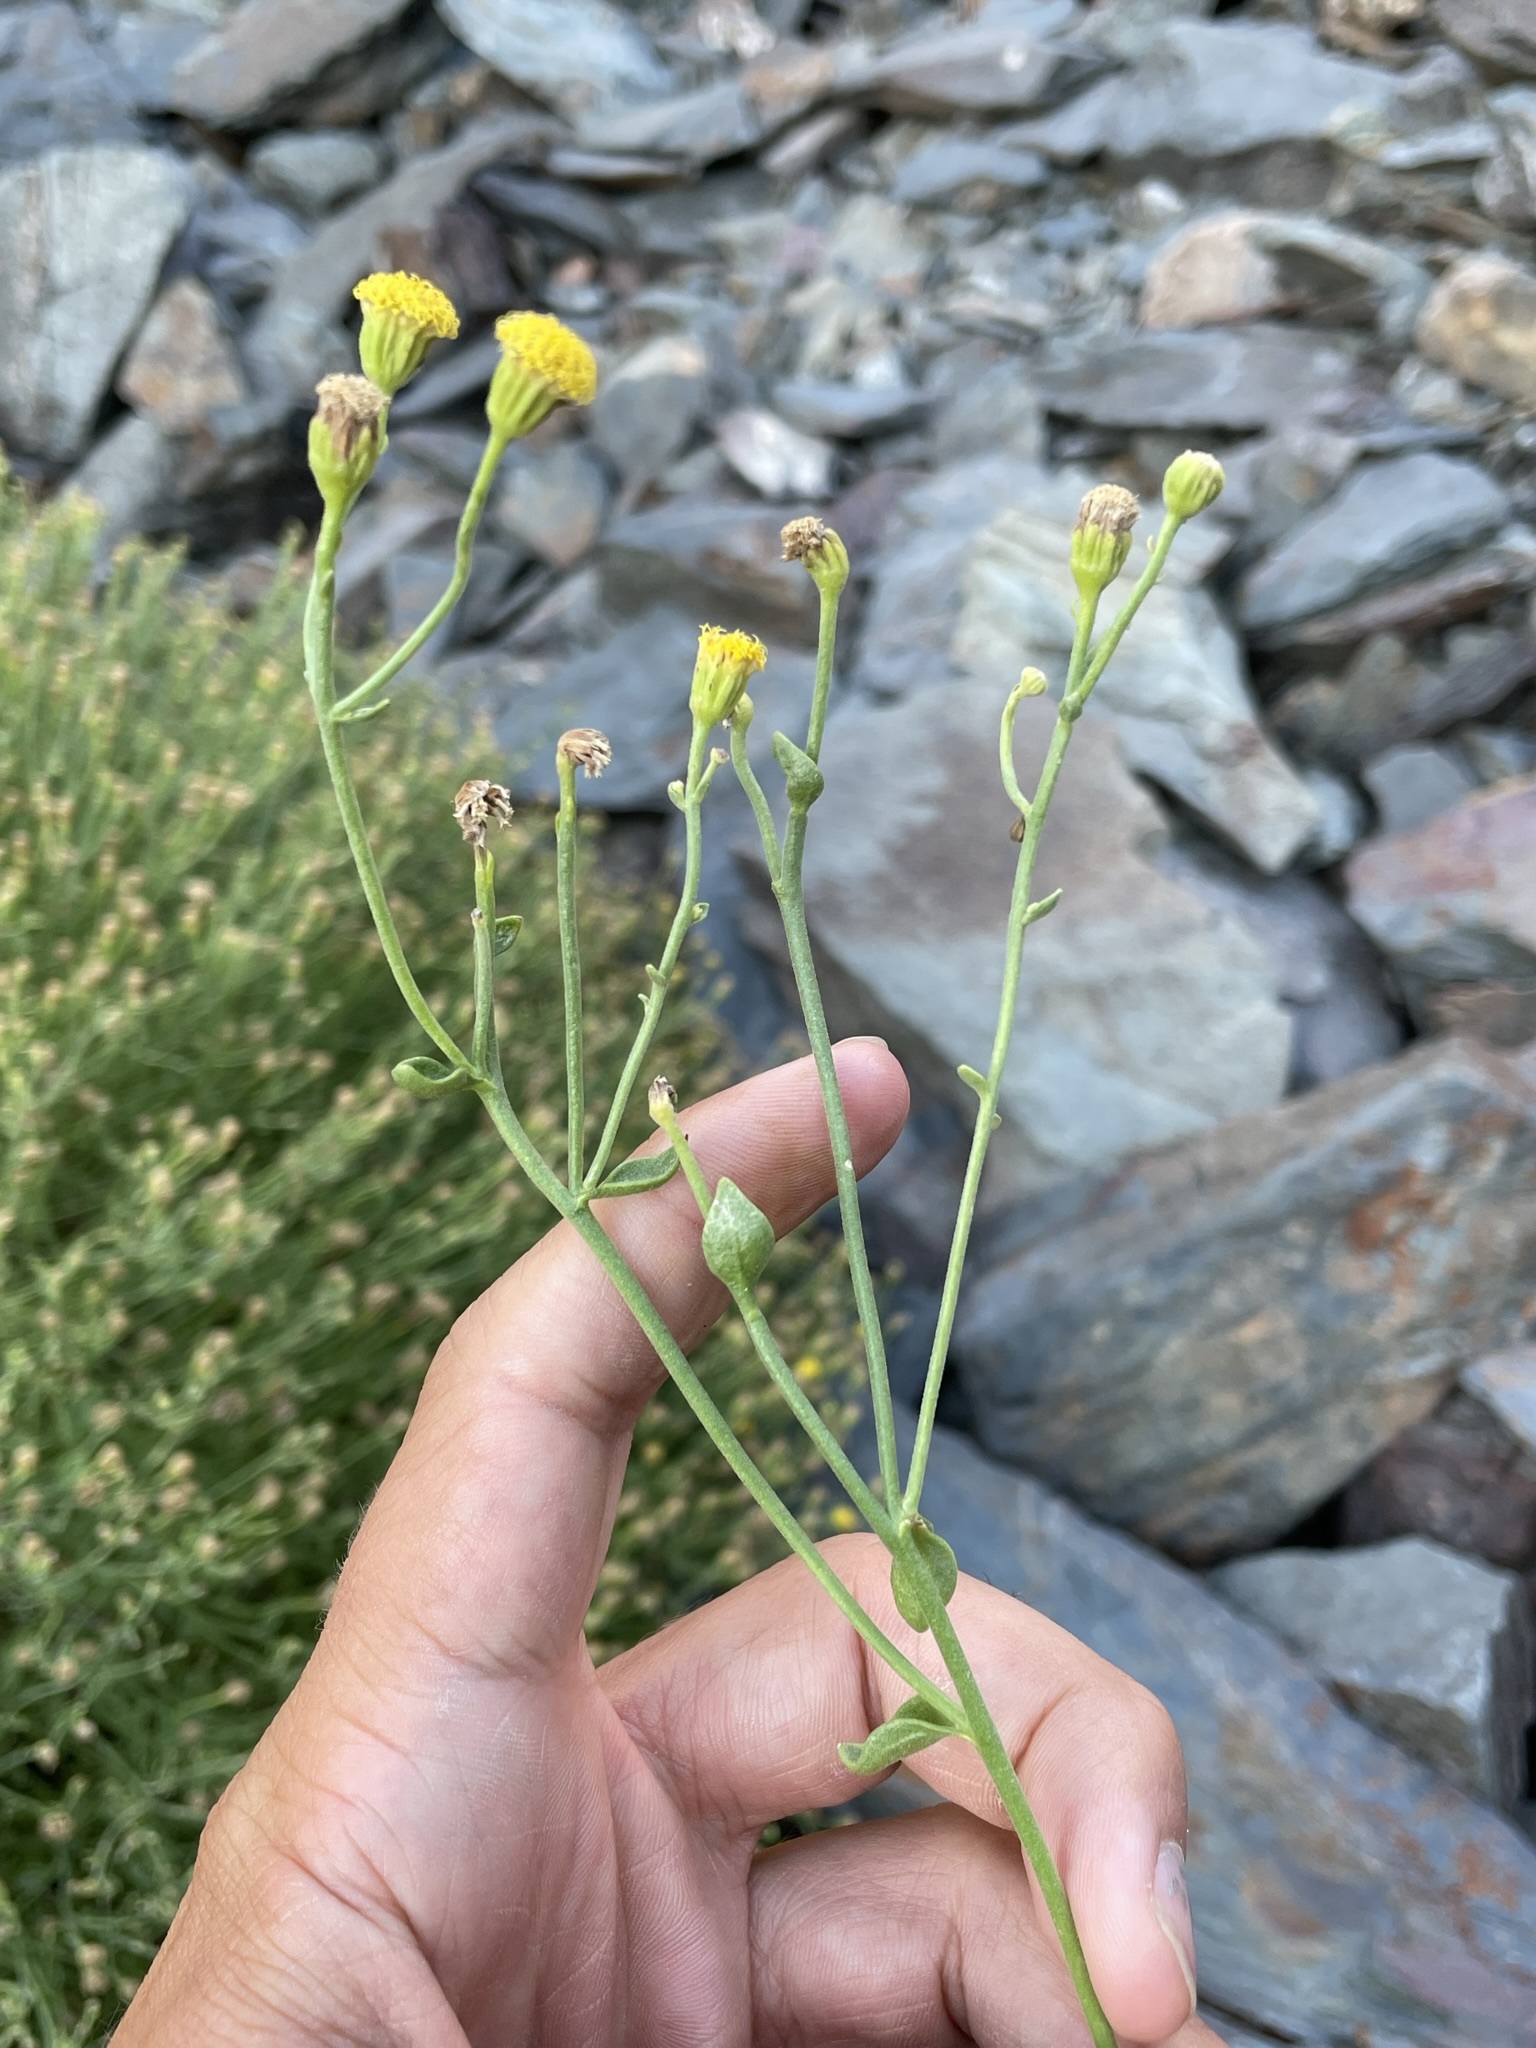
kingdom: Plantae
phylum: Tracheophyta
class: Magnoliopsida
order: Asterales
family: Asteraceae
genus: Laphamia
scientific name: Laphamia megalocephala
